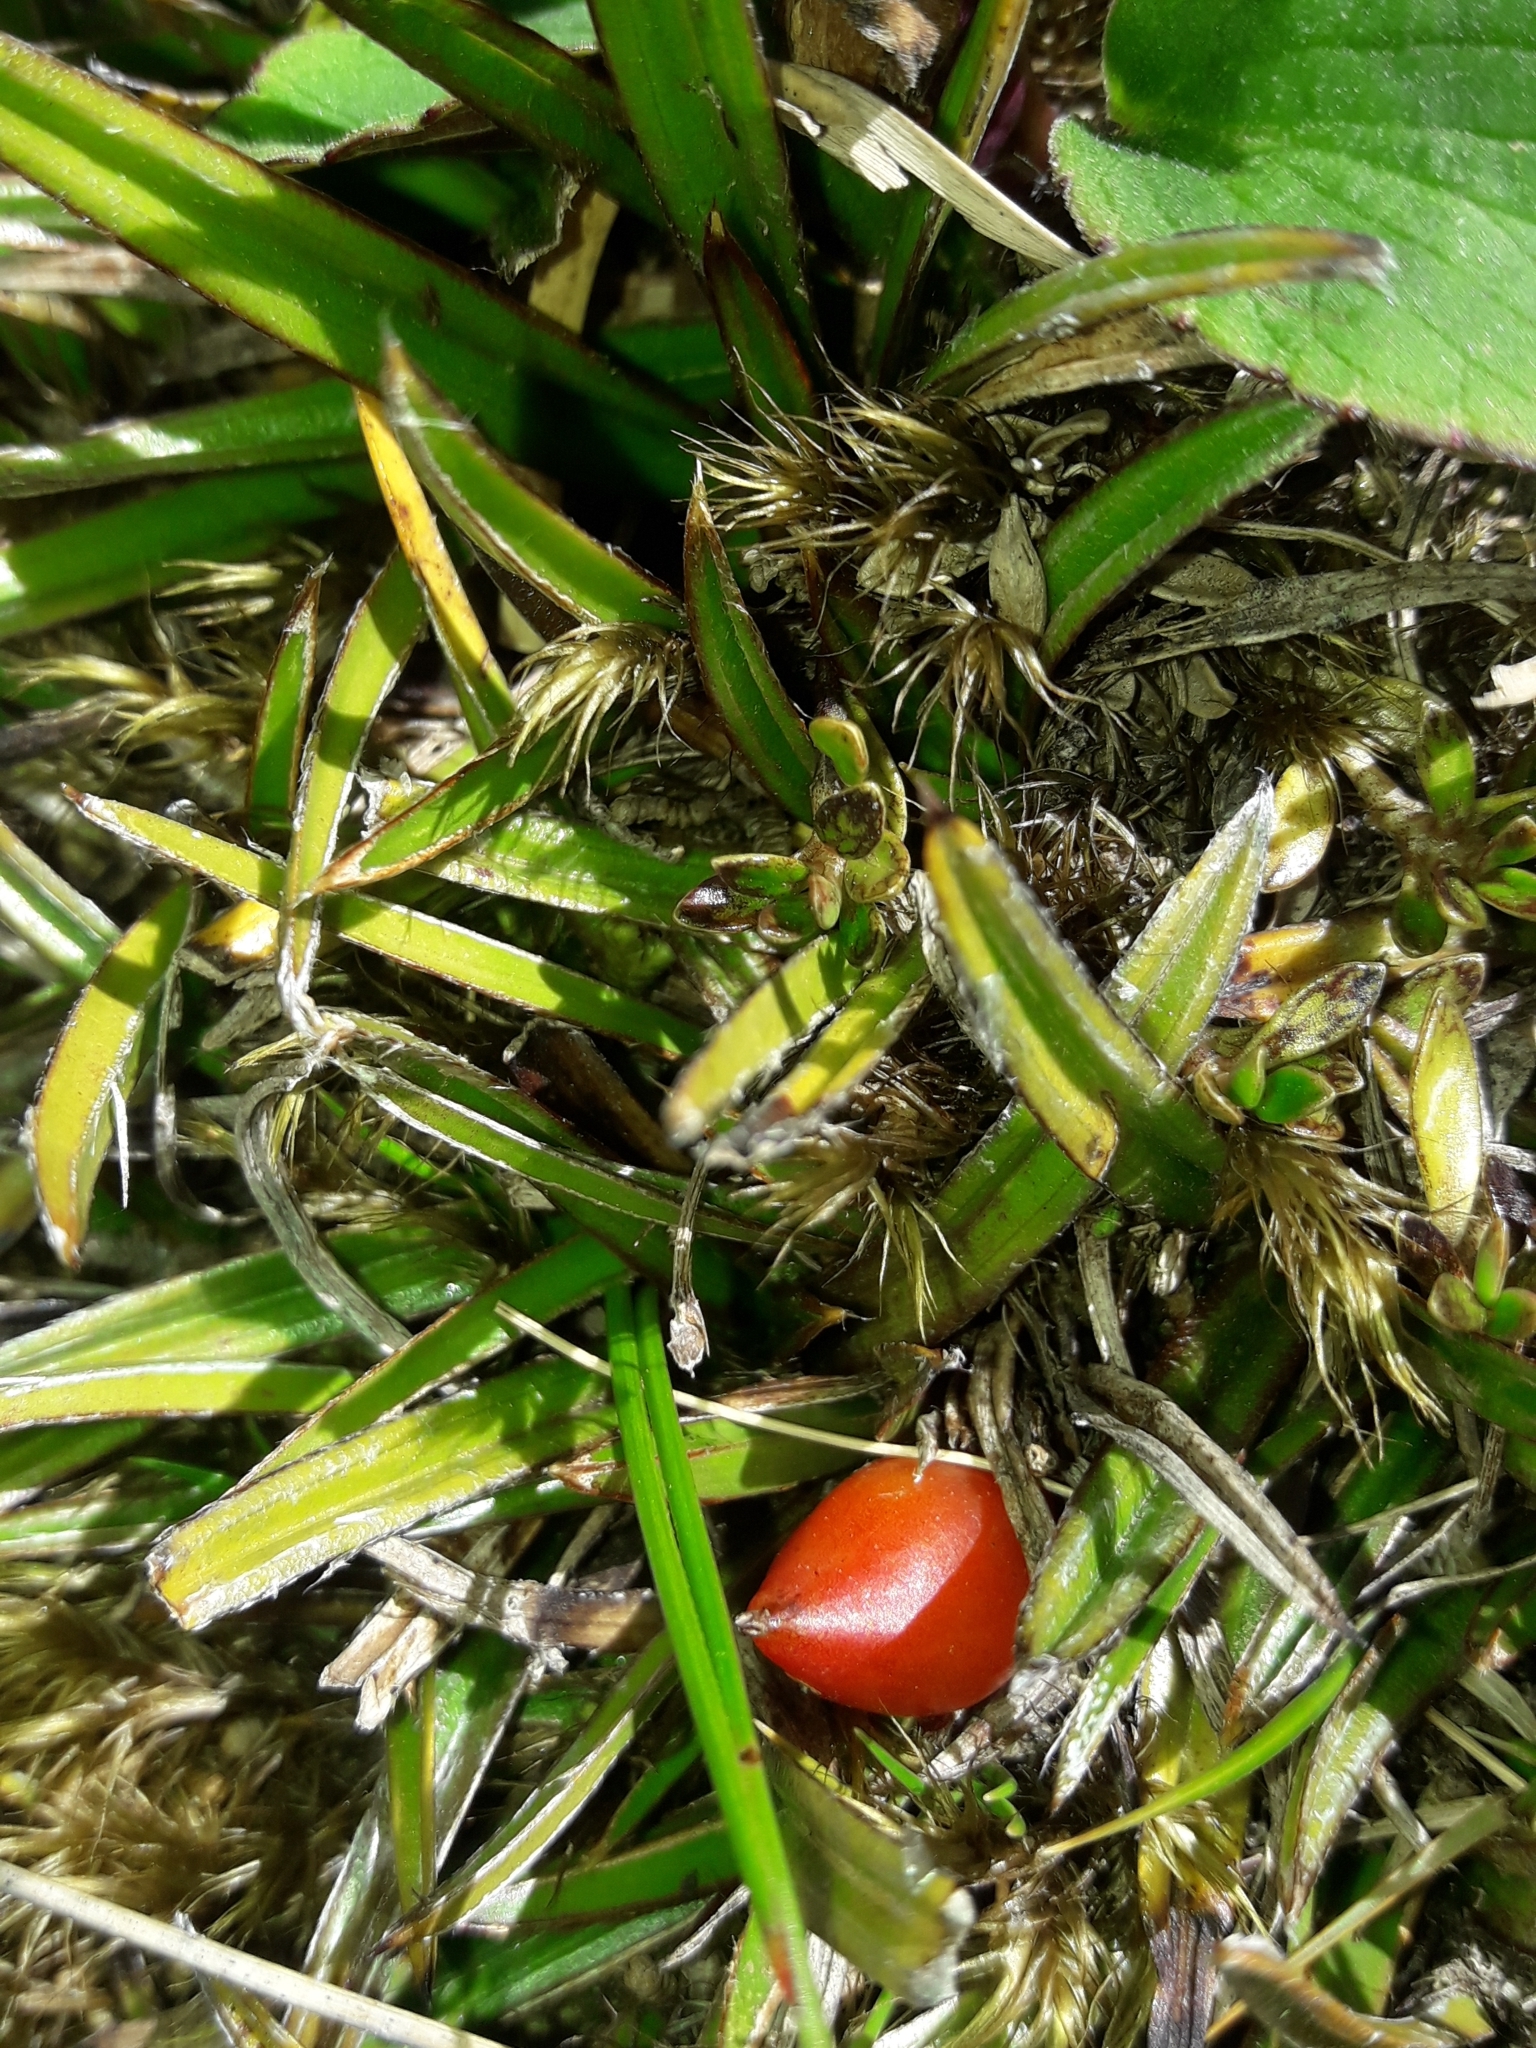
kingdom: Plantae
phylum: Tracheophyta
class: Liliopsida
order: Asparagales
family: Asteliaceae
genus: Astelia
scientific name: Astelia linearis
